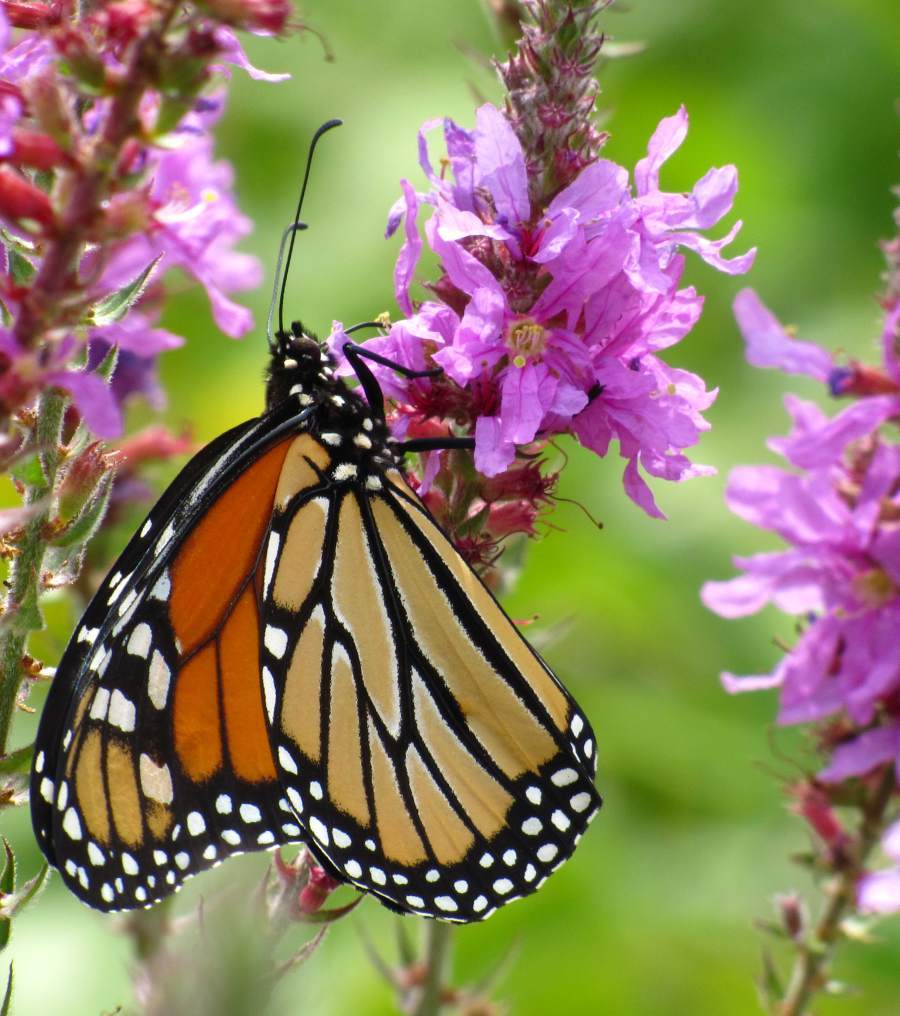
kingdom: Animalia
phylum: Arthropoda
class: Insecta
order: Lepidoptera
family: Nymphalidae
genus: Danaus
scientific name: Danaus plexippus
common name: Monarch
